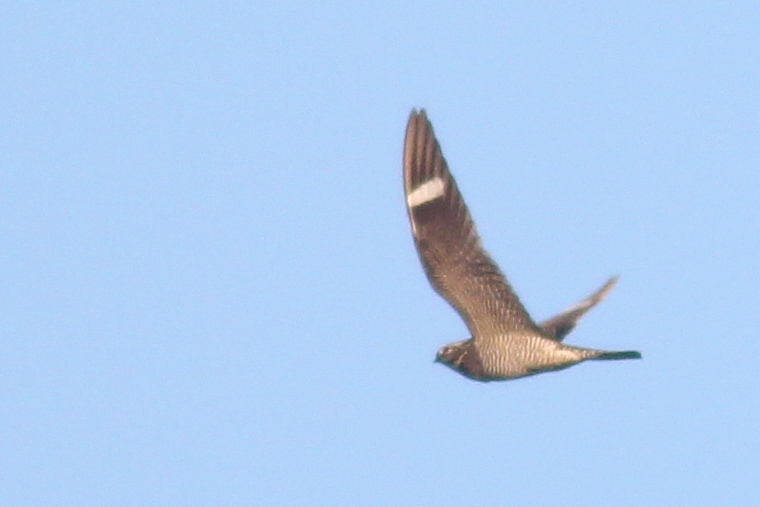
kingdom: Animalia
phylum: Chordata
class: Aves
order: Caprimulgiformes
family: Caprimulgidae
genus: Chordeiles
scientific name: Chordeiles minor
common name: Common nighthawk
